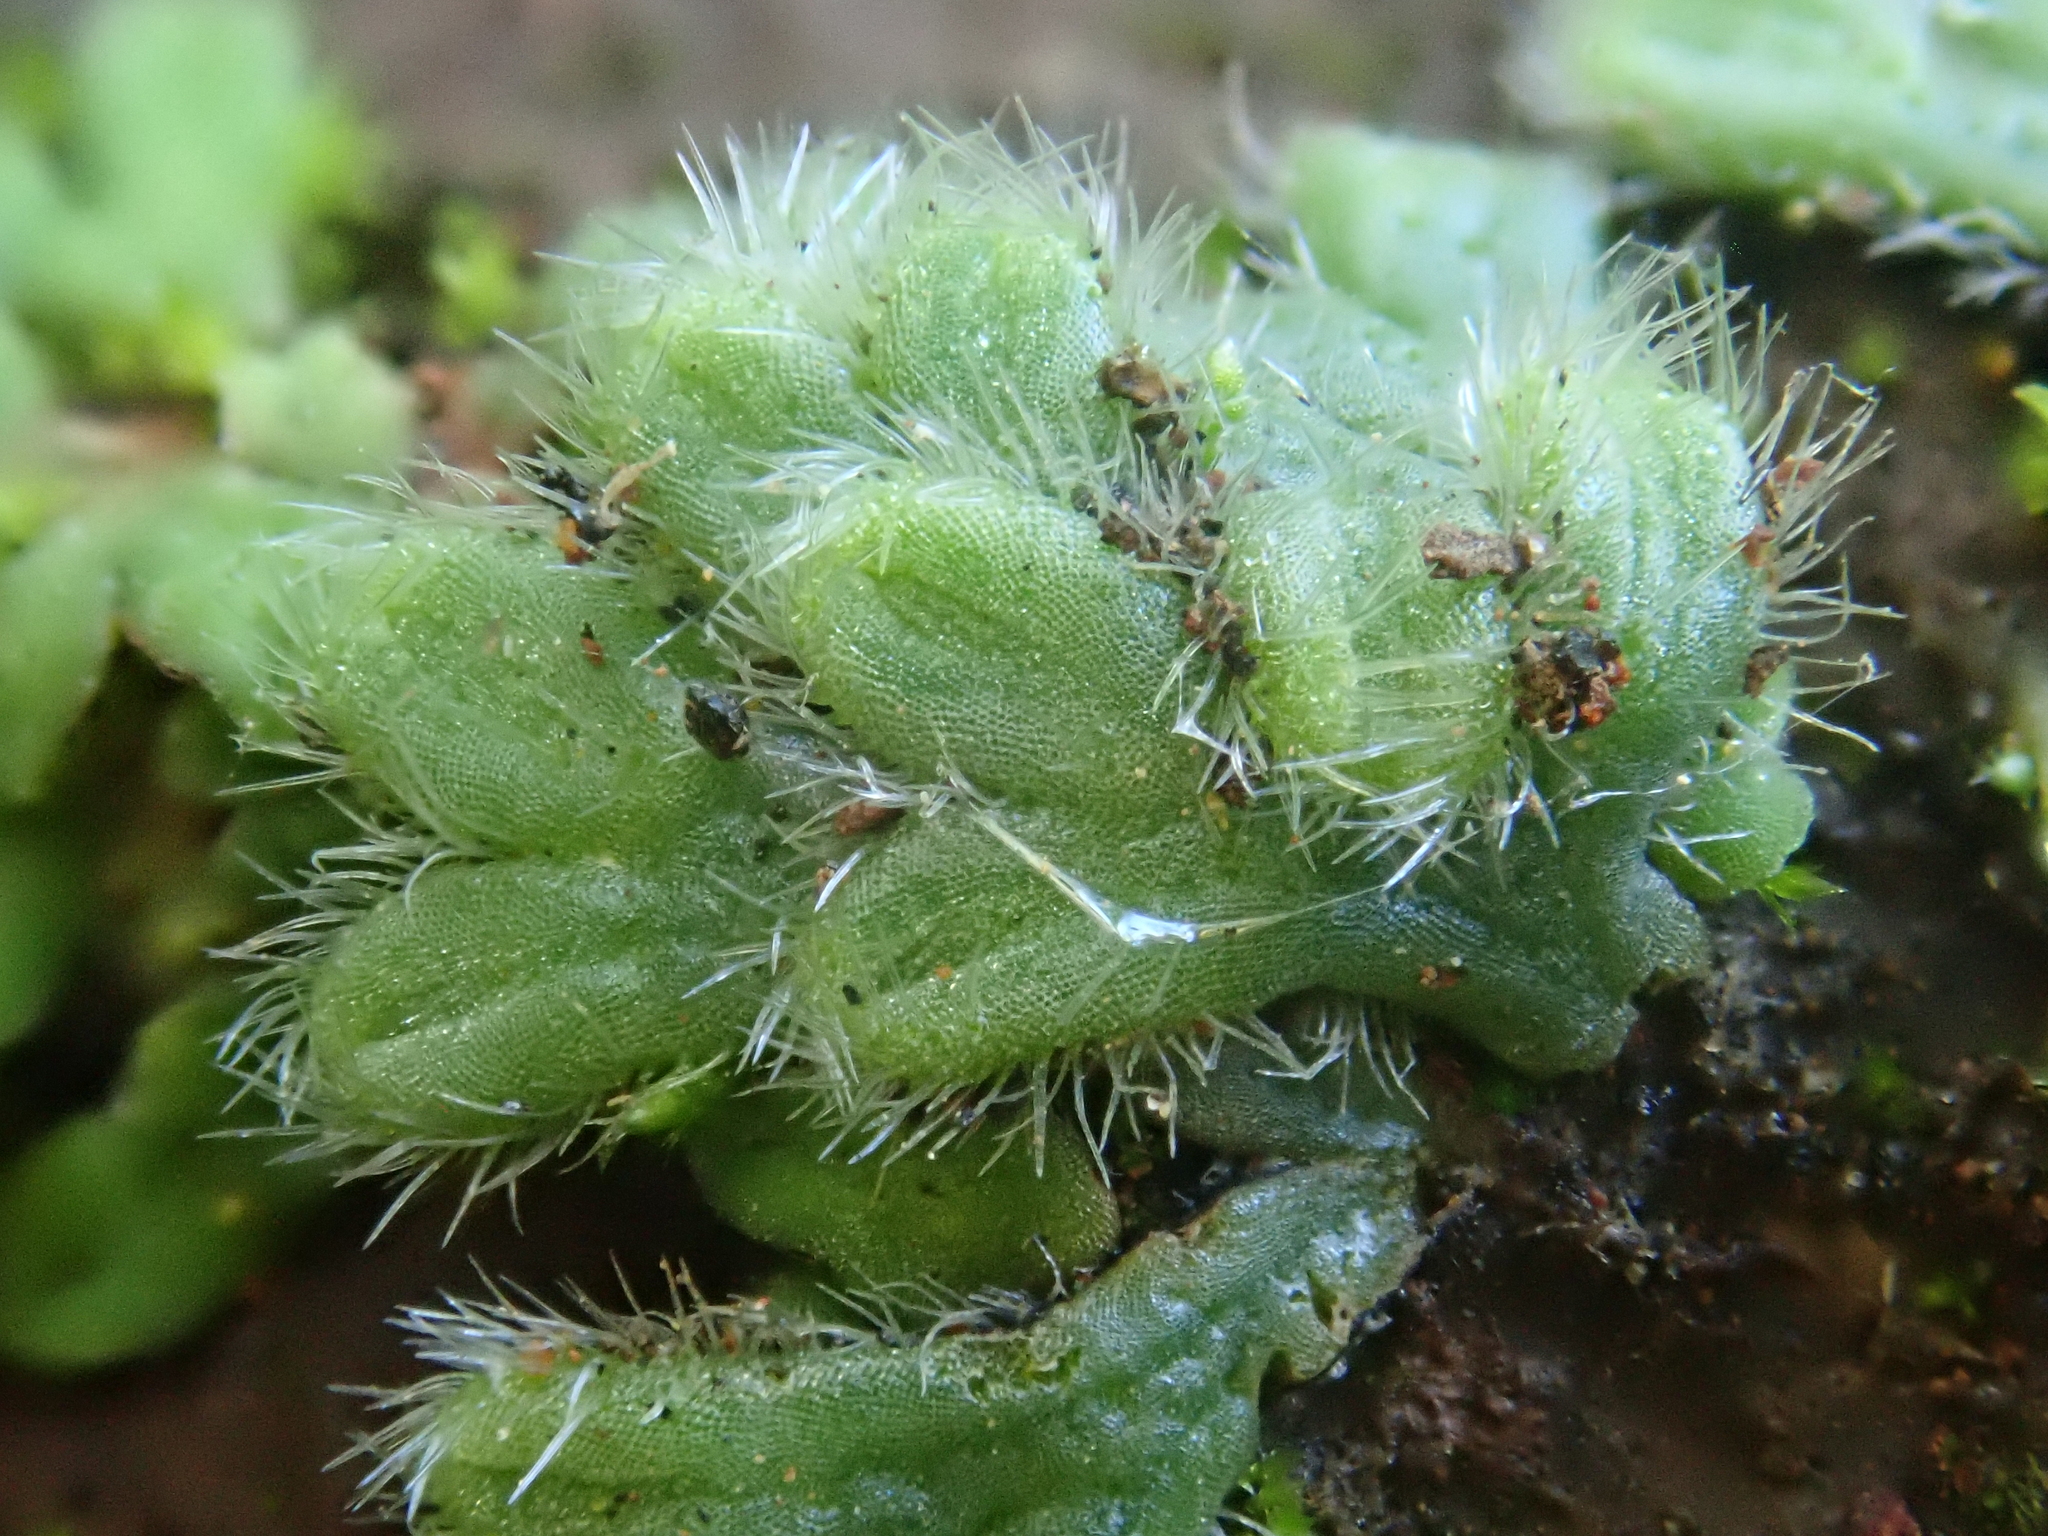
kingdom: Plantae
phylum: Marchantiophyta
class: Marchantiopsida
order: Marchantiales
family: Ricciaceae
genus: Riccia
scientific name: Riccia ciliata
